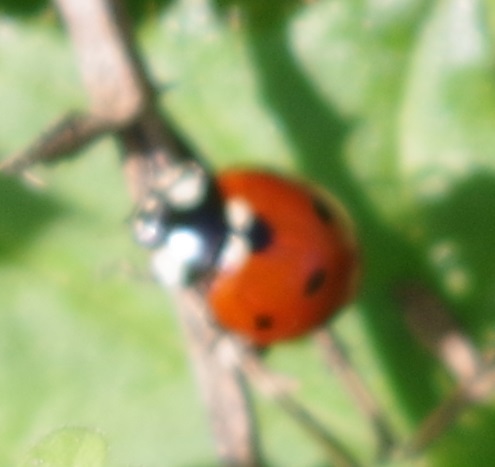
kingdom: Animalia
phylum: Arthropoda
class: Insecta
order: Coleoptera
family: Coccinellidae
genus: Coccinella
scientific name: Coccinella septempunctata
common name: Sevenspotted lady beetle
